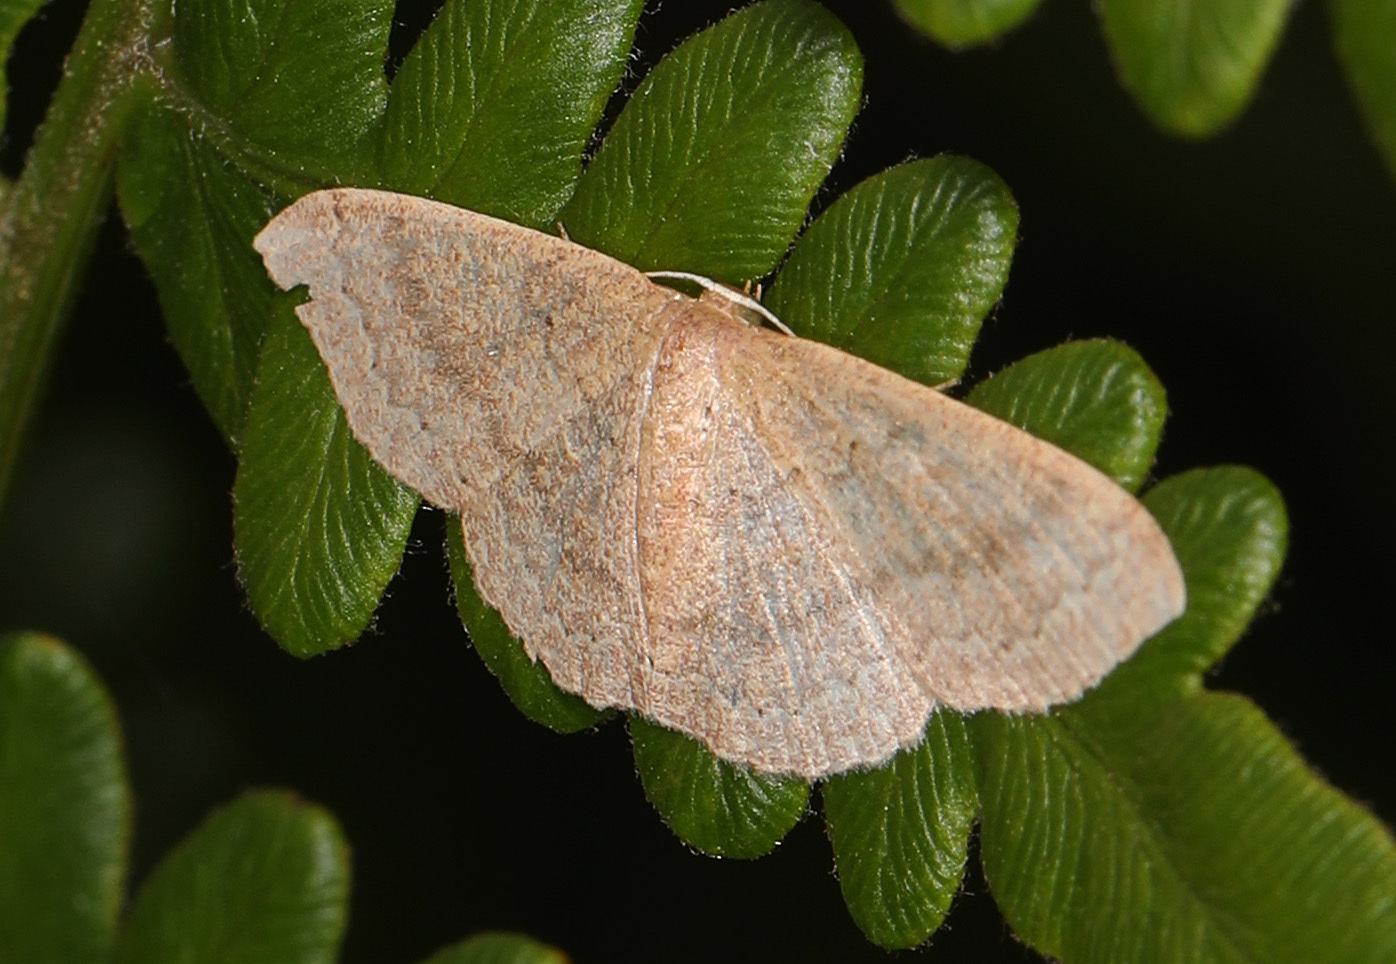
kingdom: Animalia
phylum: Arthropoda
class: Insecta
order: Lepidoptera
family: Geometridae
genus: Pleuroprucha
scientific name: Pleuroprucha insulsaria
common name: Common tan wave
